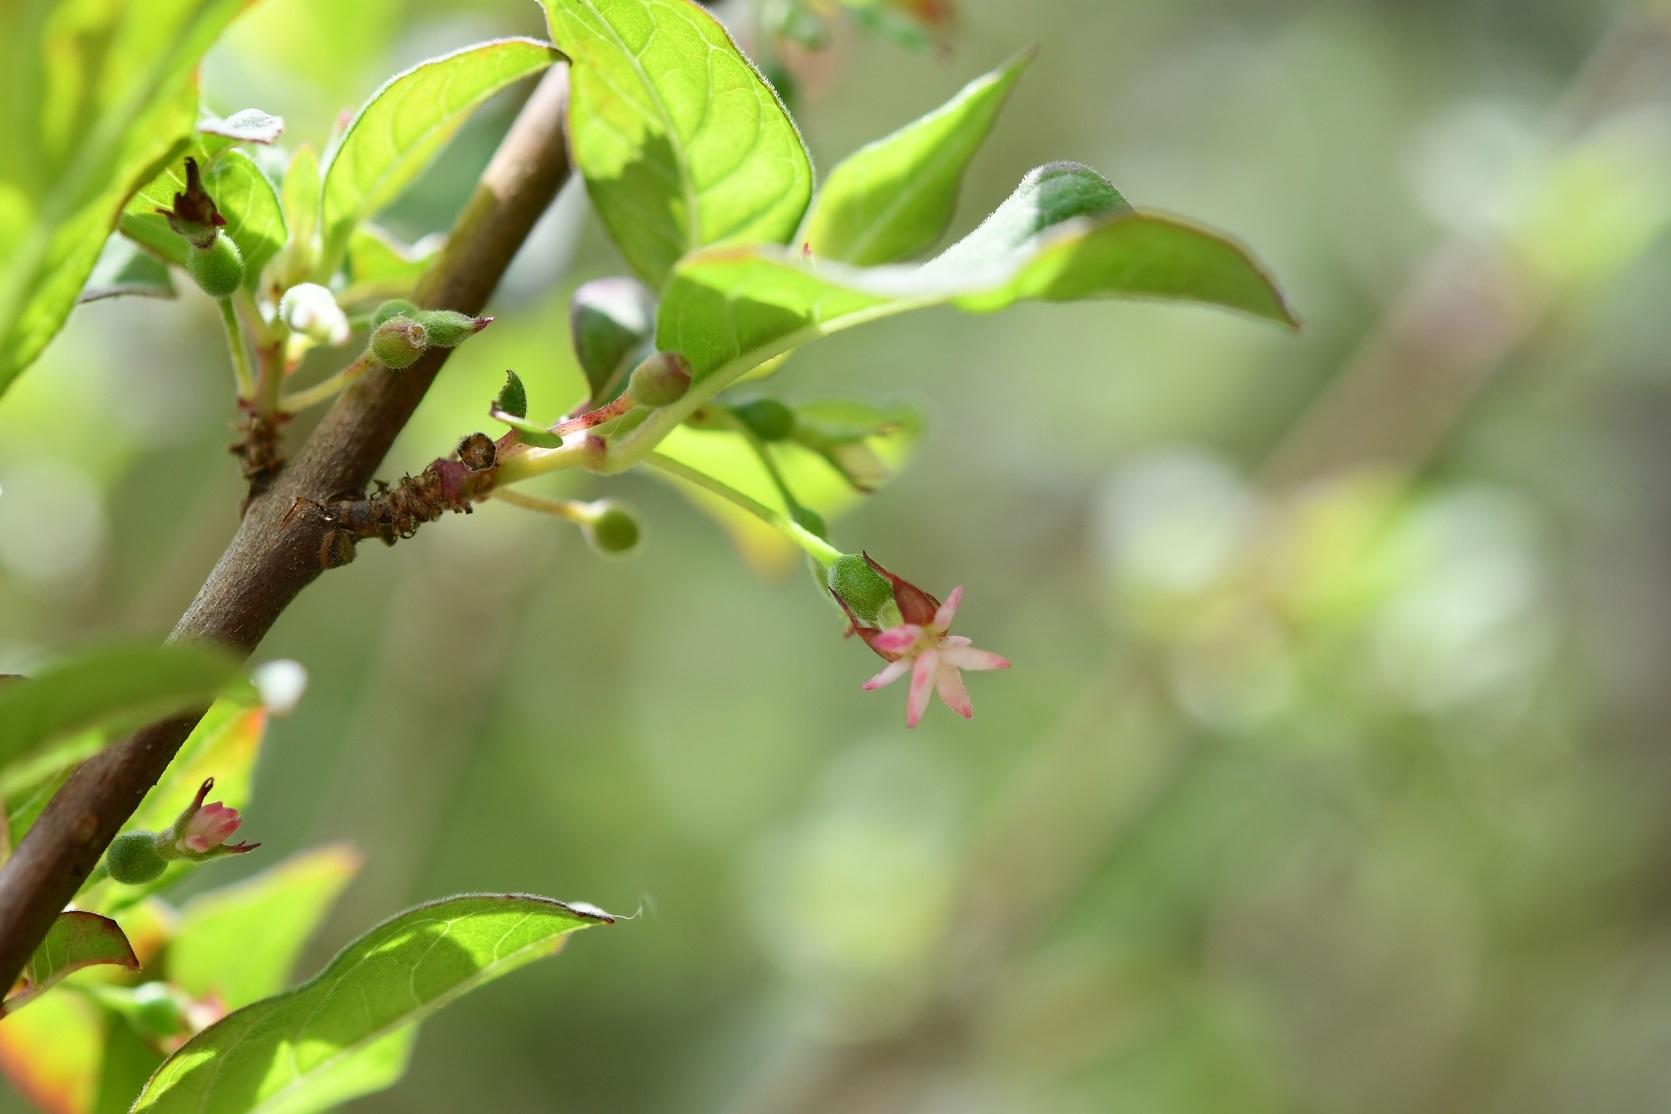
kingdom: Plantae
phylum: Tracheophyta
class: Magnoliopsida
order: Myrtales
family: Onagraceae
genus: Fuchsia
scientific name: Fuchsia encliandra
